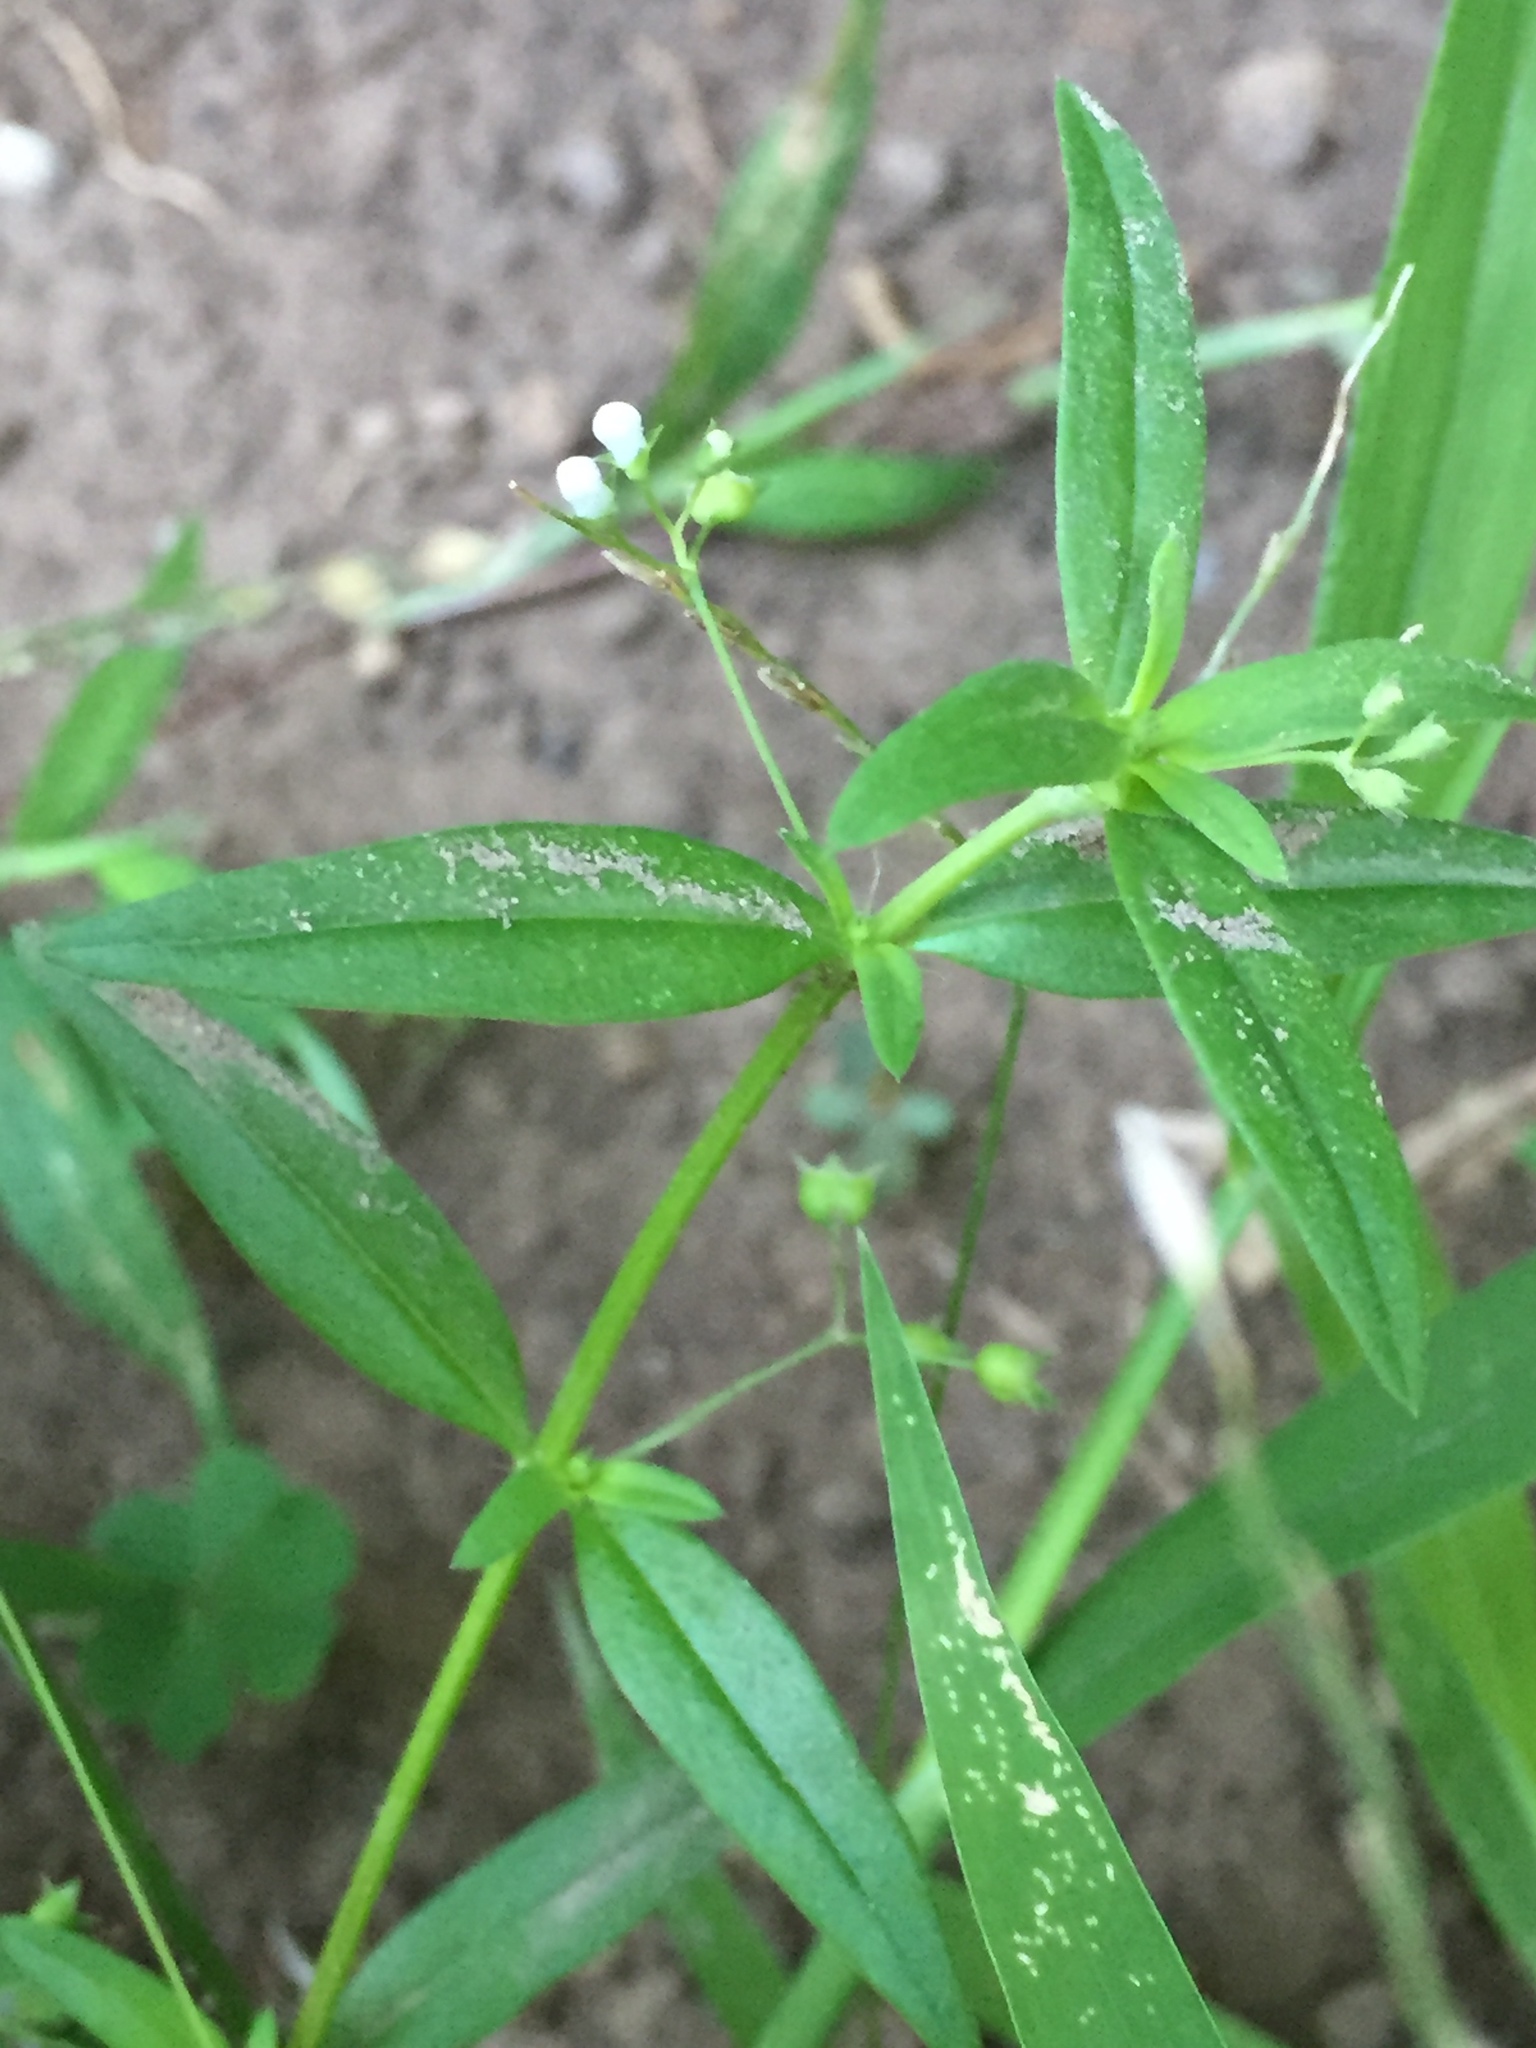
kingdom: Plantae
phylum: Tracheophyta
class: Magnoliopsida
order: Gentianales
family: Rubiaceae
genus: Oldenlandia
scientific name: Oldenlandia corymbosa
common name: Flat-top mille graines
